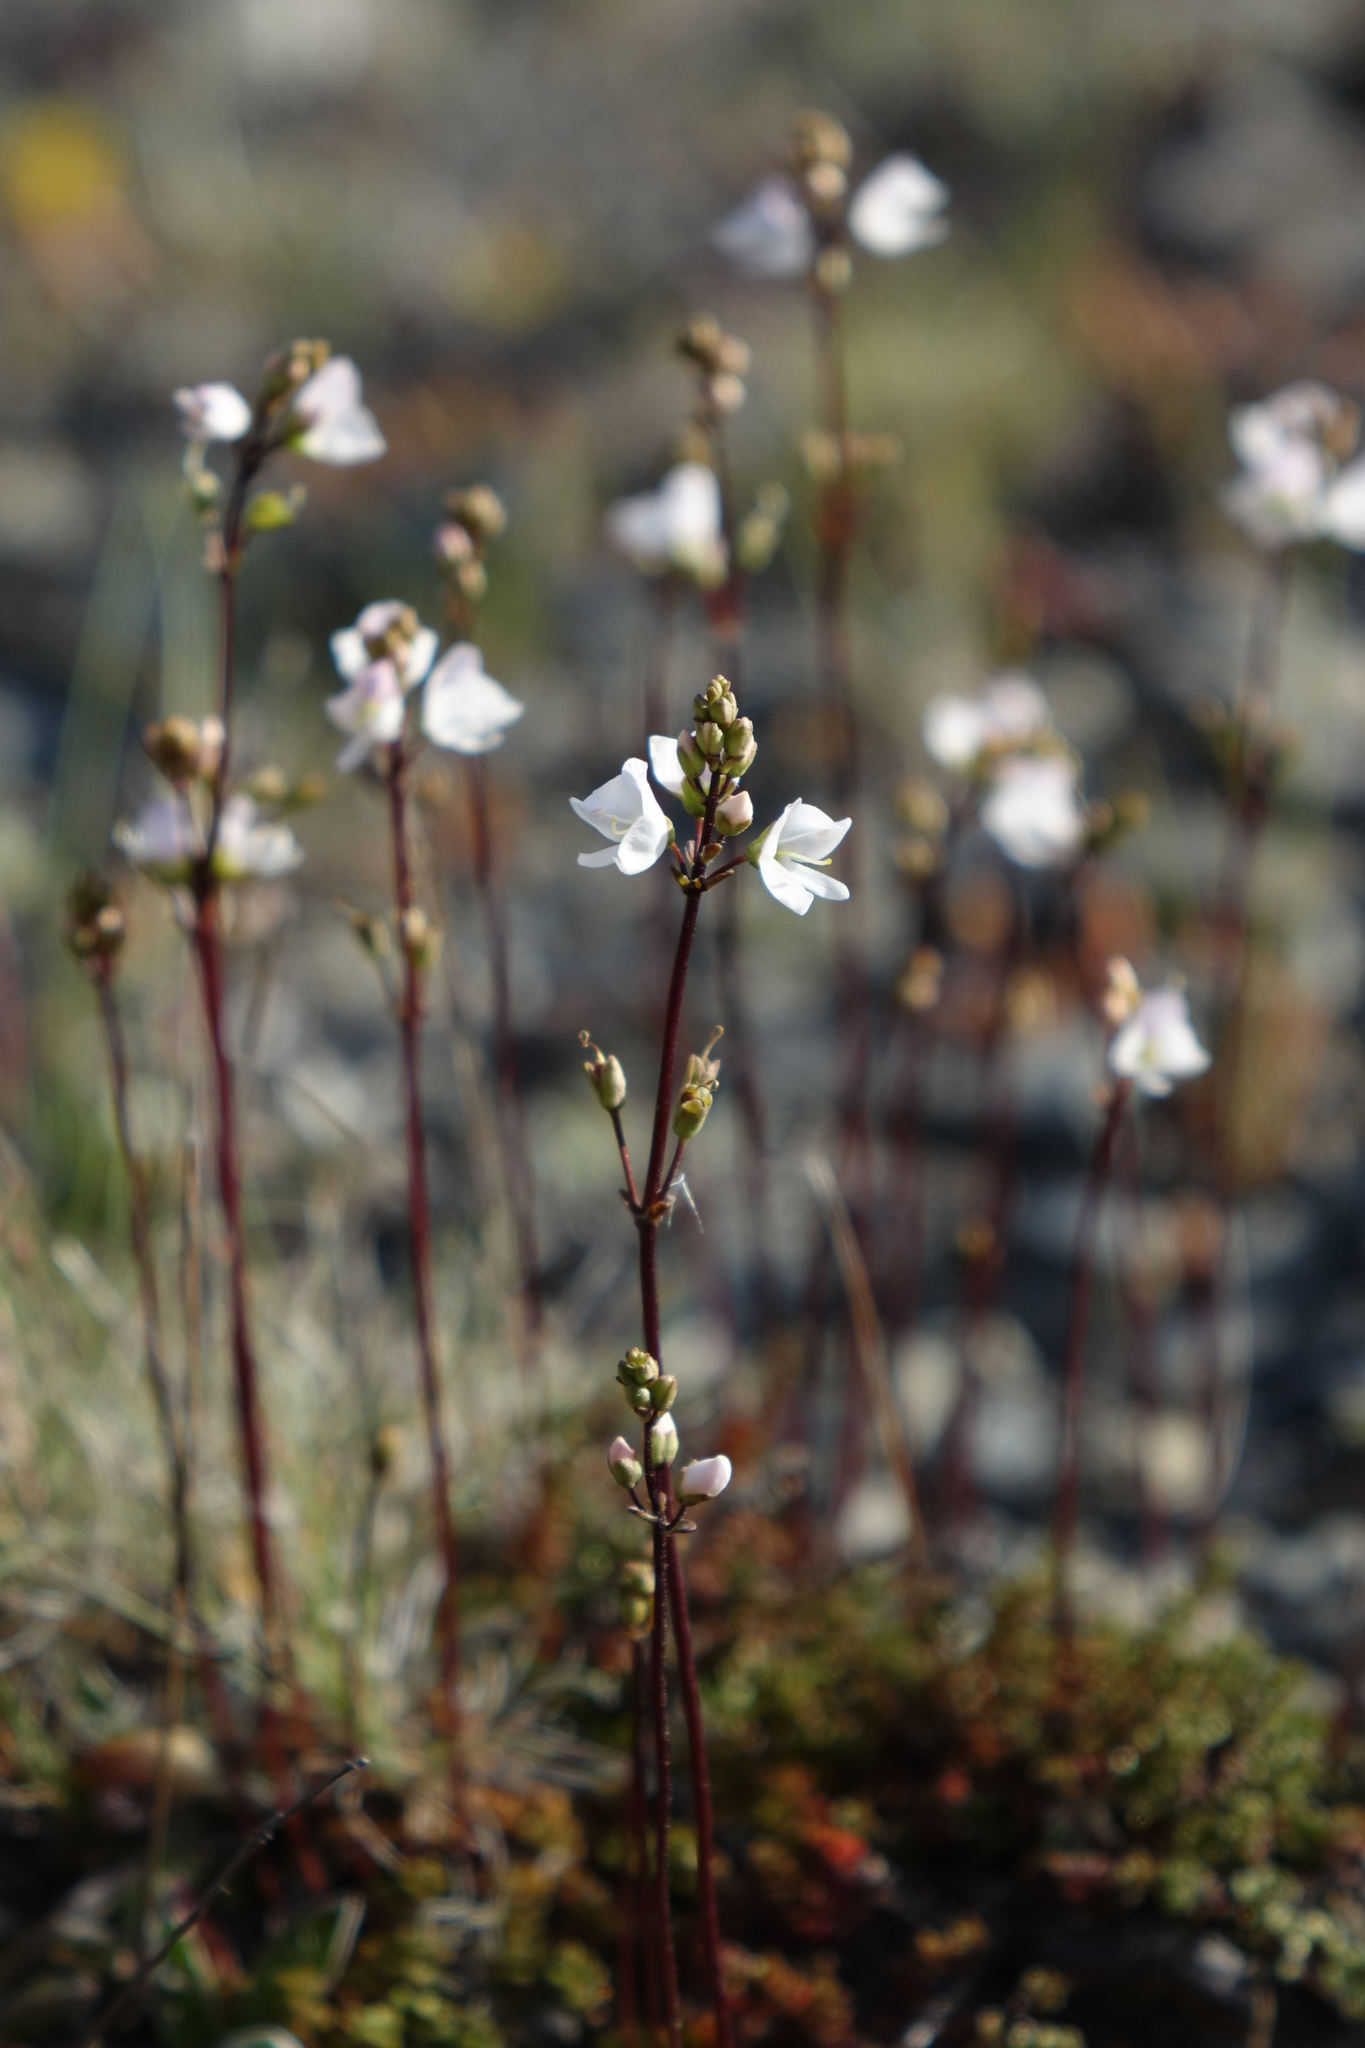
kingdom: Plantae
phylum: Tracheophyta
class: Magnoliopsida
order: Lamiales
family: Plantaginaceae
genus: Veronica
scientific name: Veronica decora
